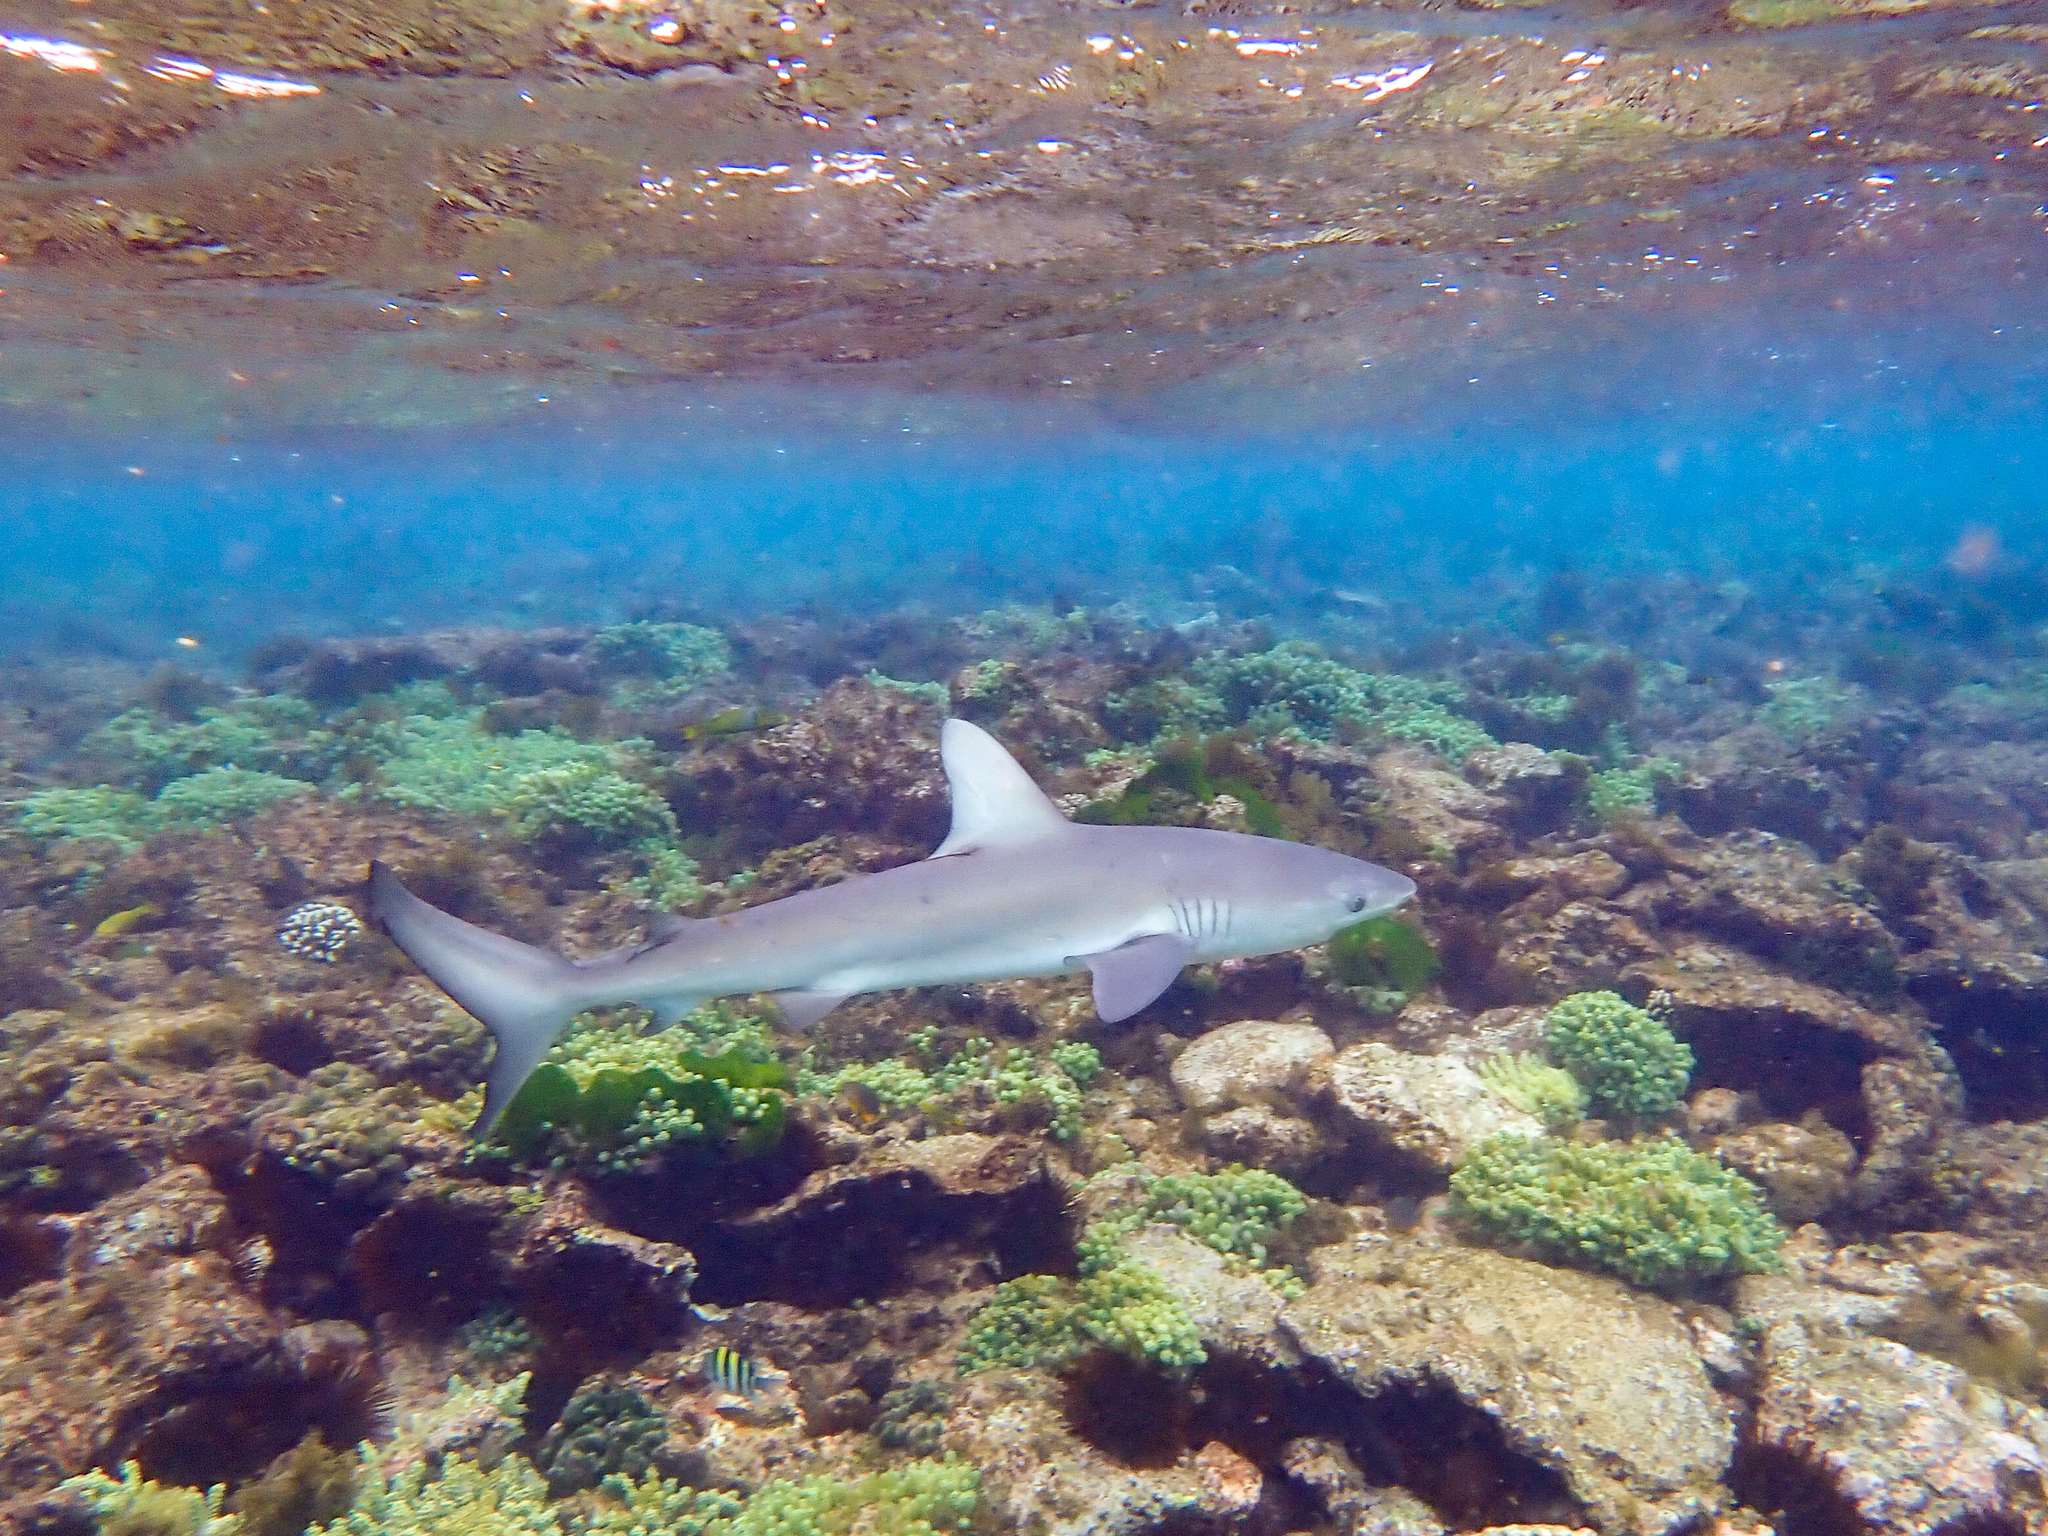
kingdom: Animalia
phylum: Chordata
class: Elasmobranchii
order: Carcharhiniformes
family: Carcharhinidae
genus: Carcharhinus
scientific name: Carcharhinus galapagensis
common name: Galapagos shark
